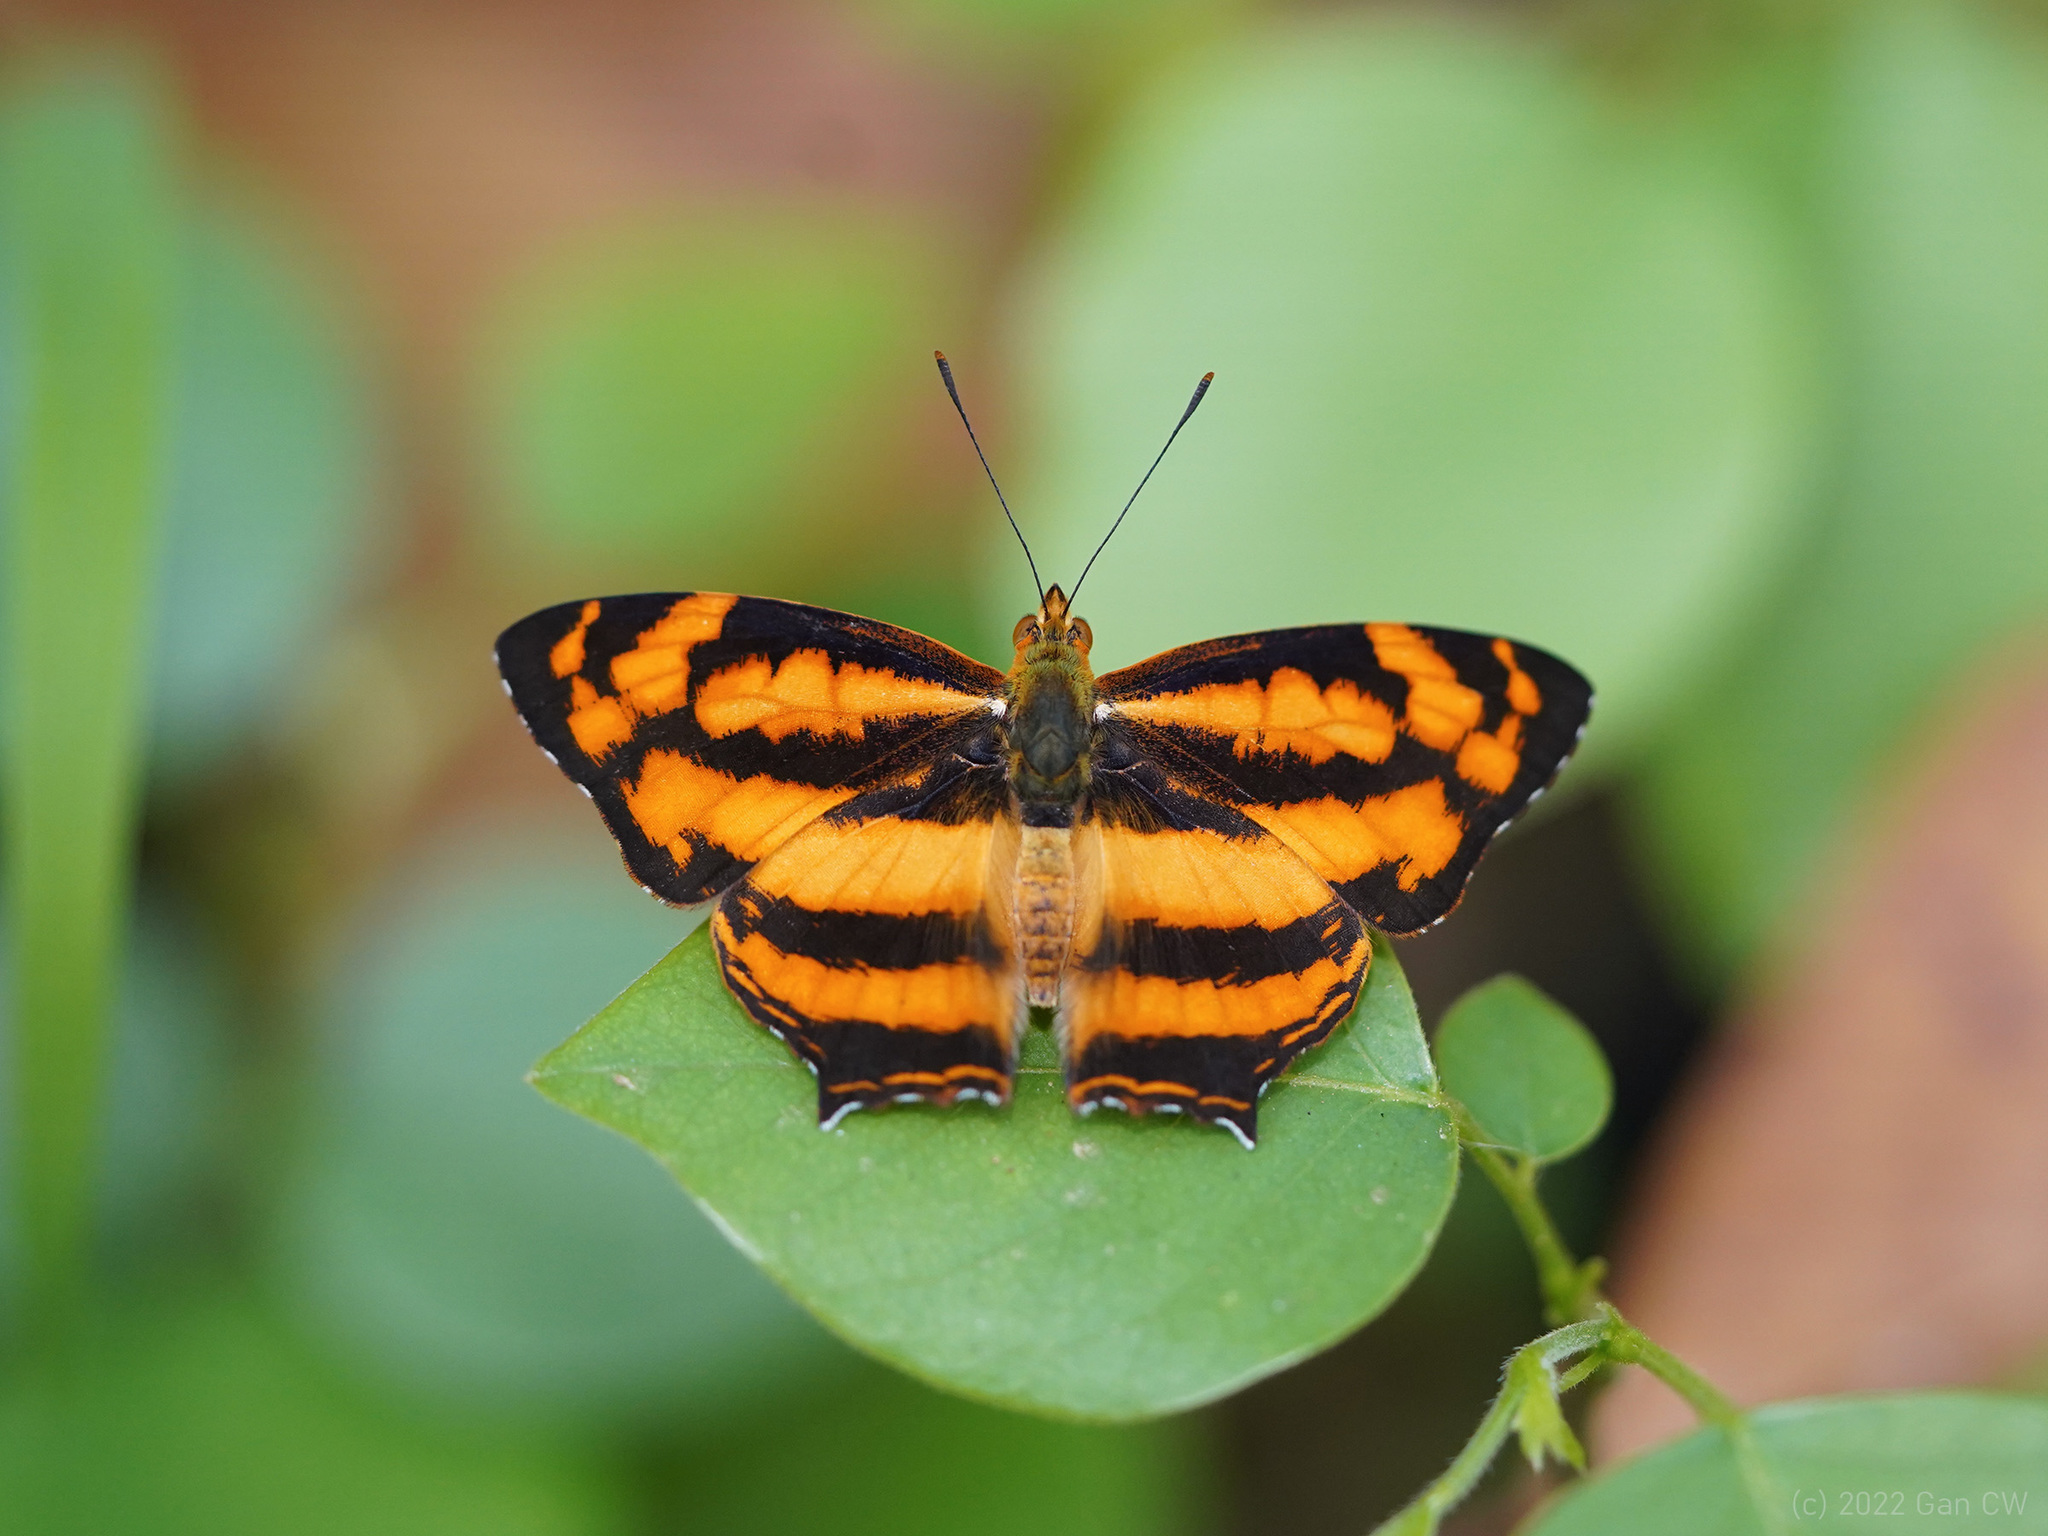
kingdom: Animalia
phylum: Arthropoda
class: Insecta
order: Lepidoptera
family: Nymphalidae
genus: Symbrenthia
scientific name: Symbrenthia hypselis
